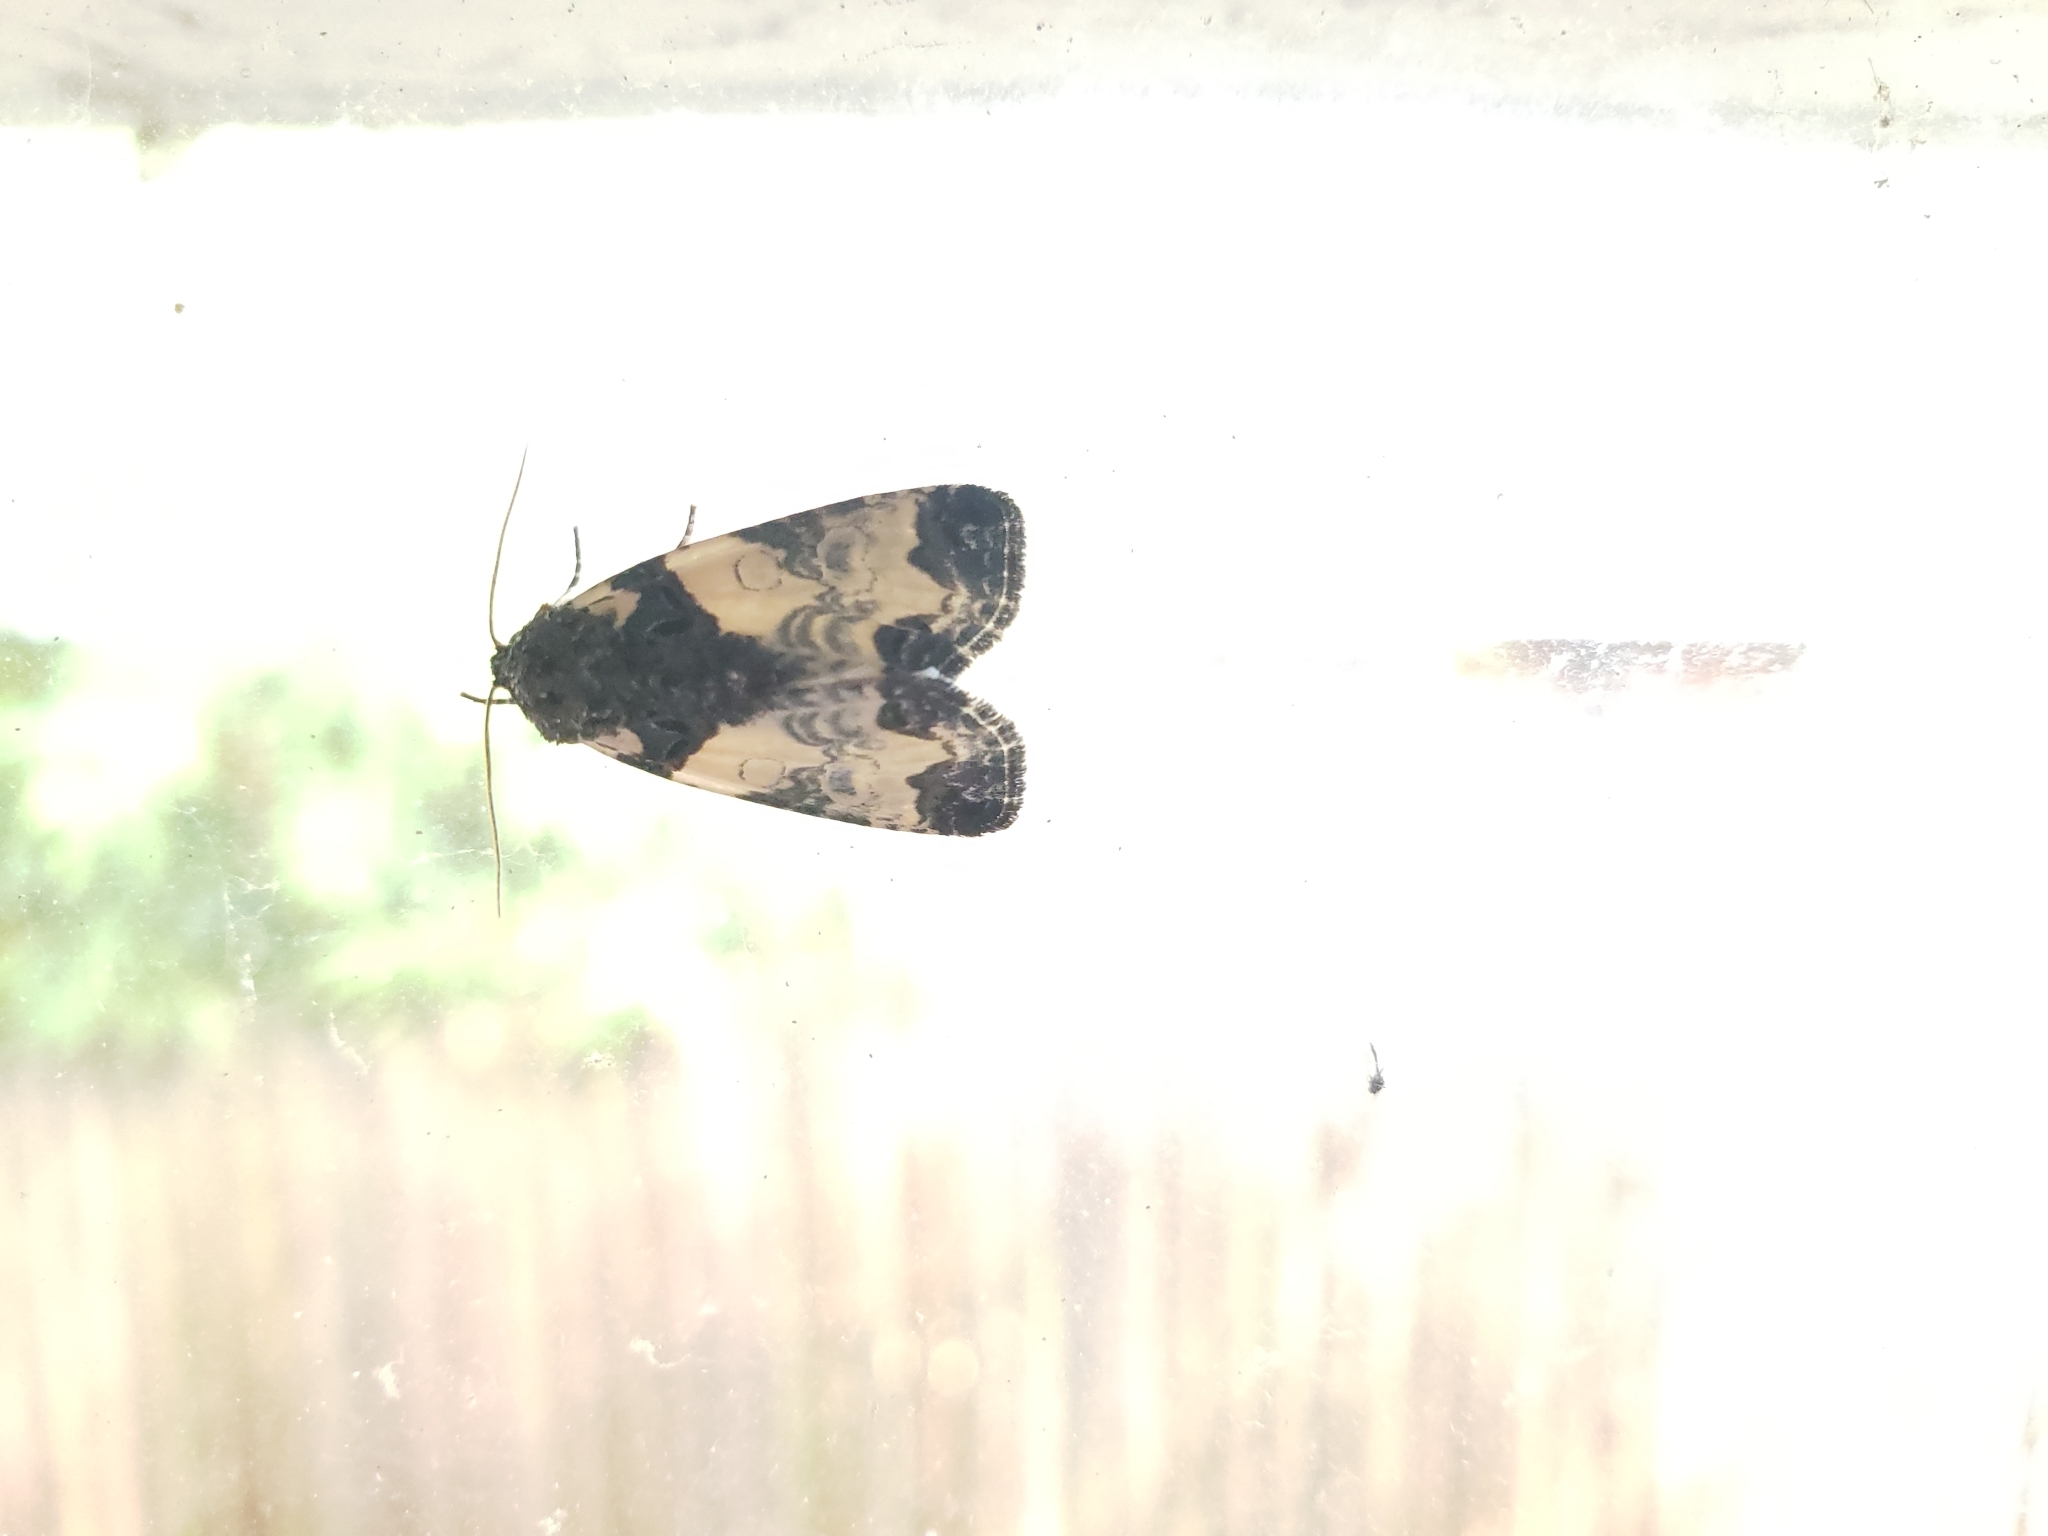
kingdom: Animalia
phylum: Arthropoda
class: Insecta
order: Lepidoptera
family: Noctuidae
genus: Cerma
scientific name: Cerma cerintha
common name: Tufted bird-dropping moth
